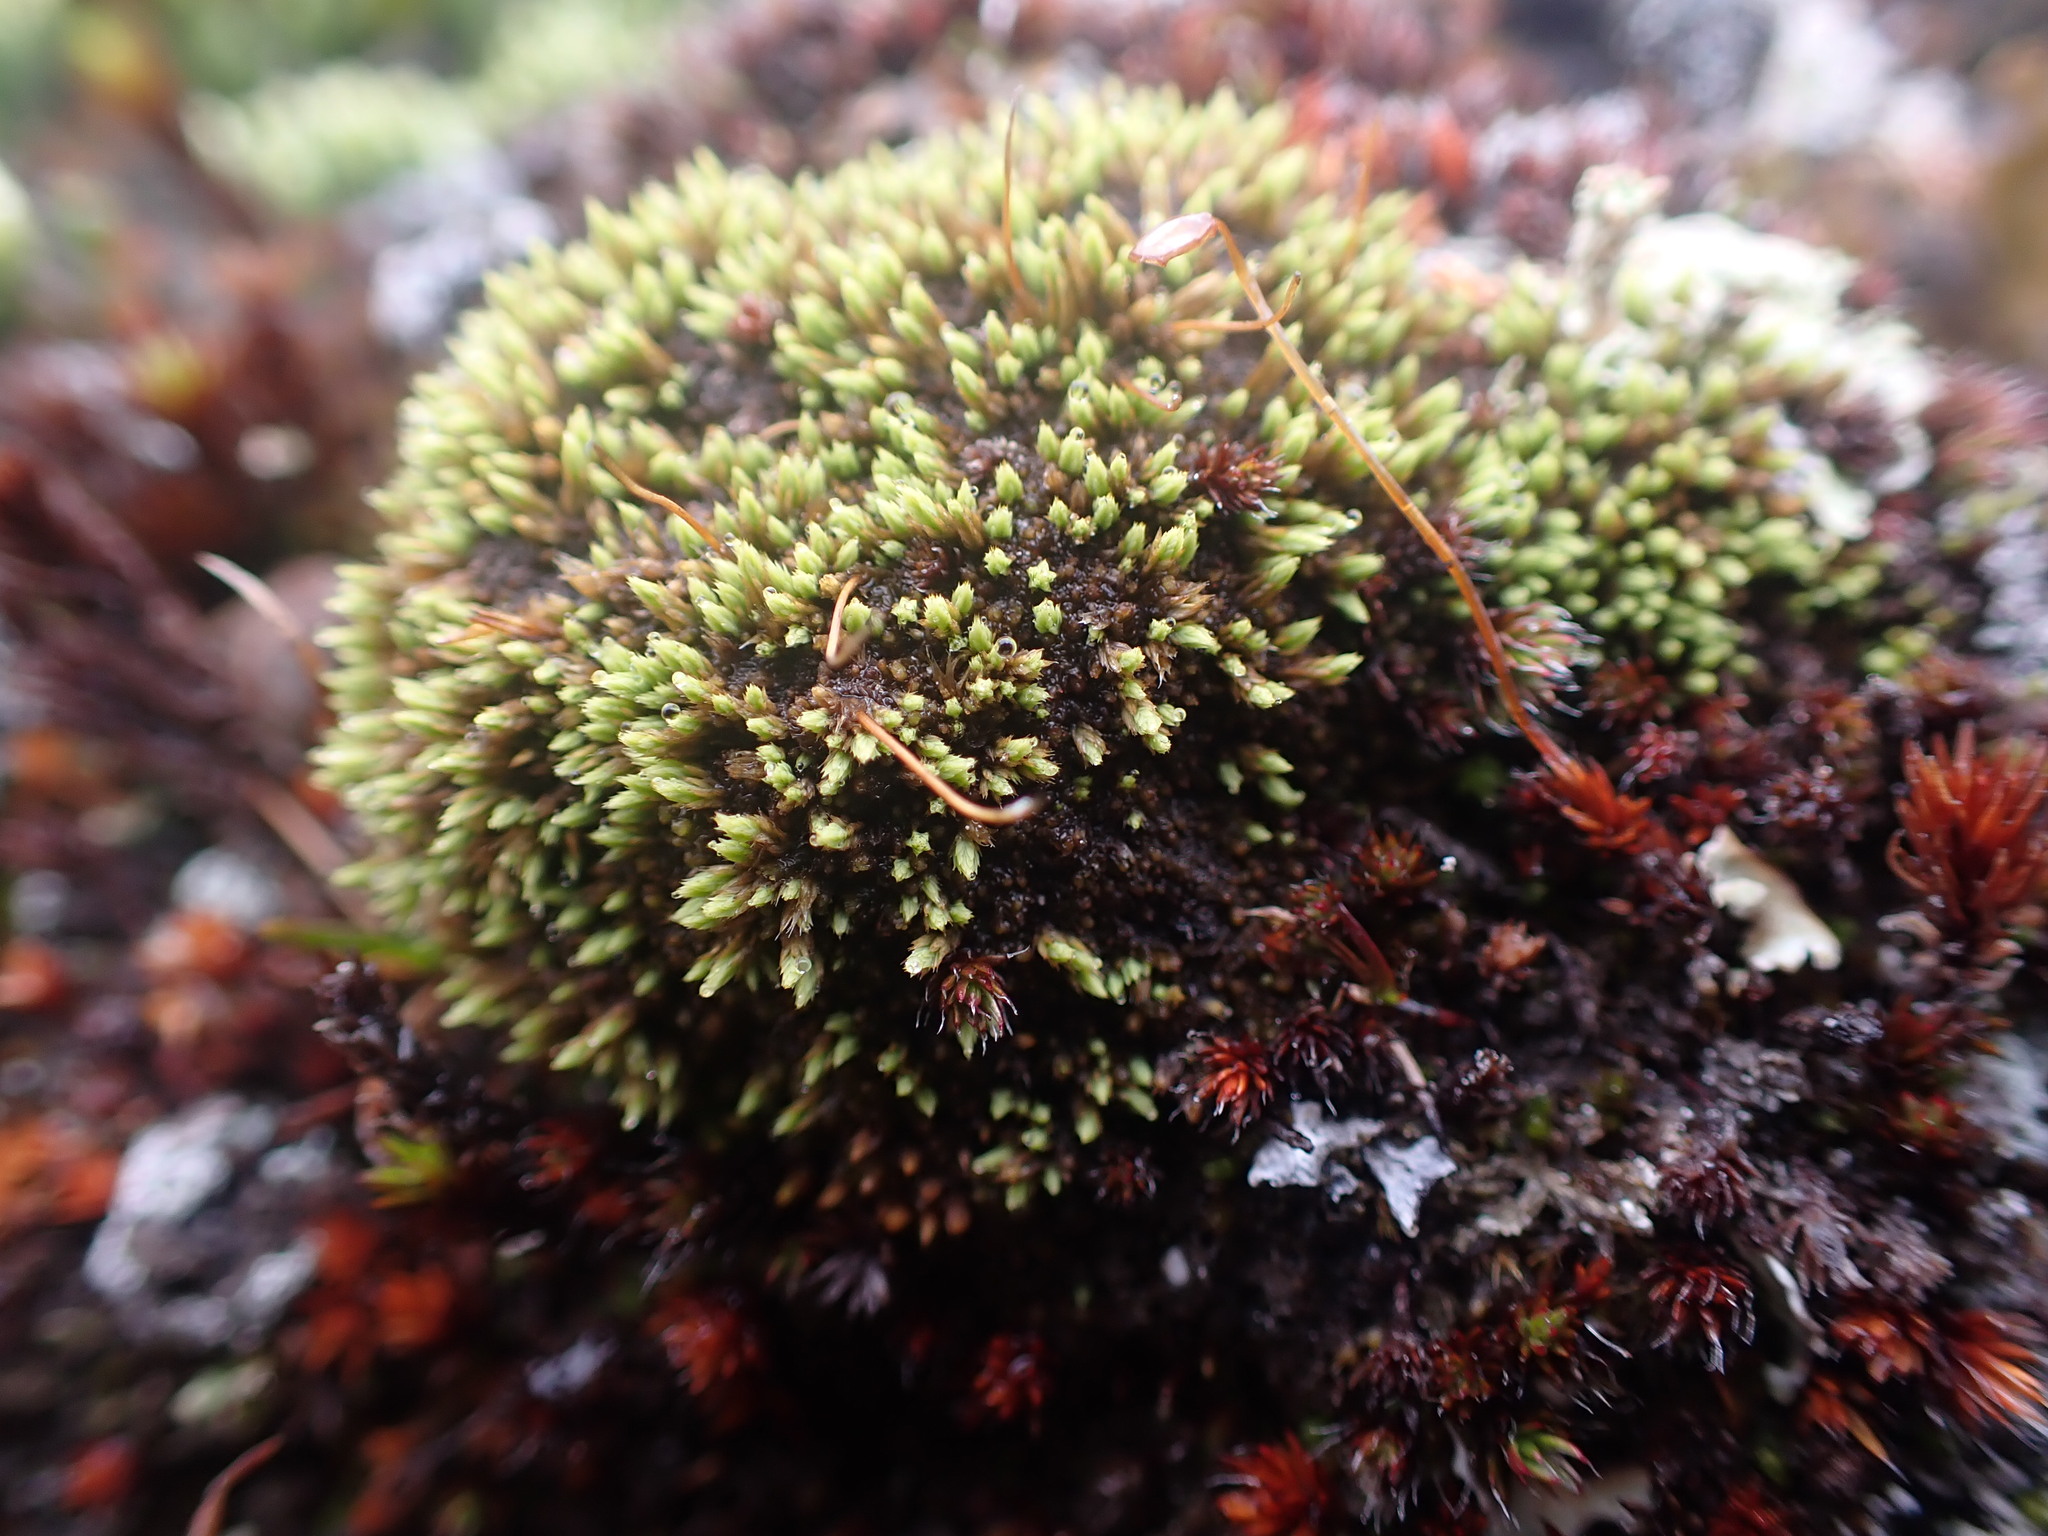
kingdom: Plantae
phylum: Bryophyta
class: Bryopsida
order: Bartramiales
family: Bartramiaceae
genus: Conostomum
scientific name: Conostomum tetragonum
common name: Helmet moss
